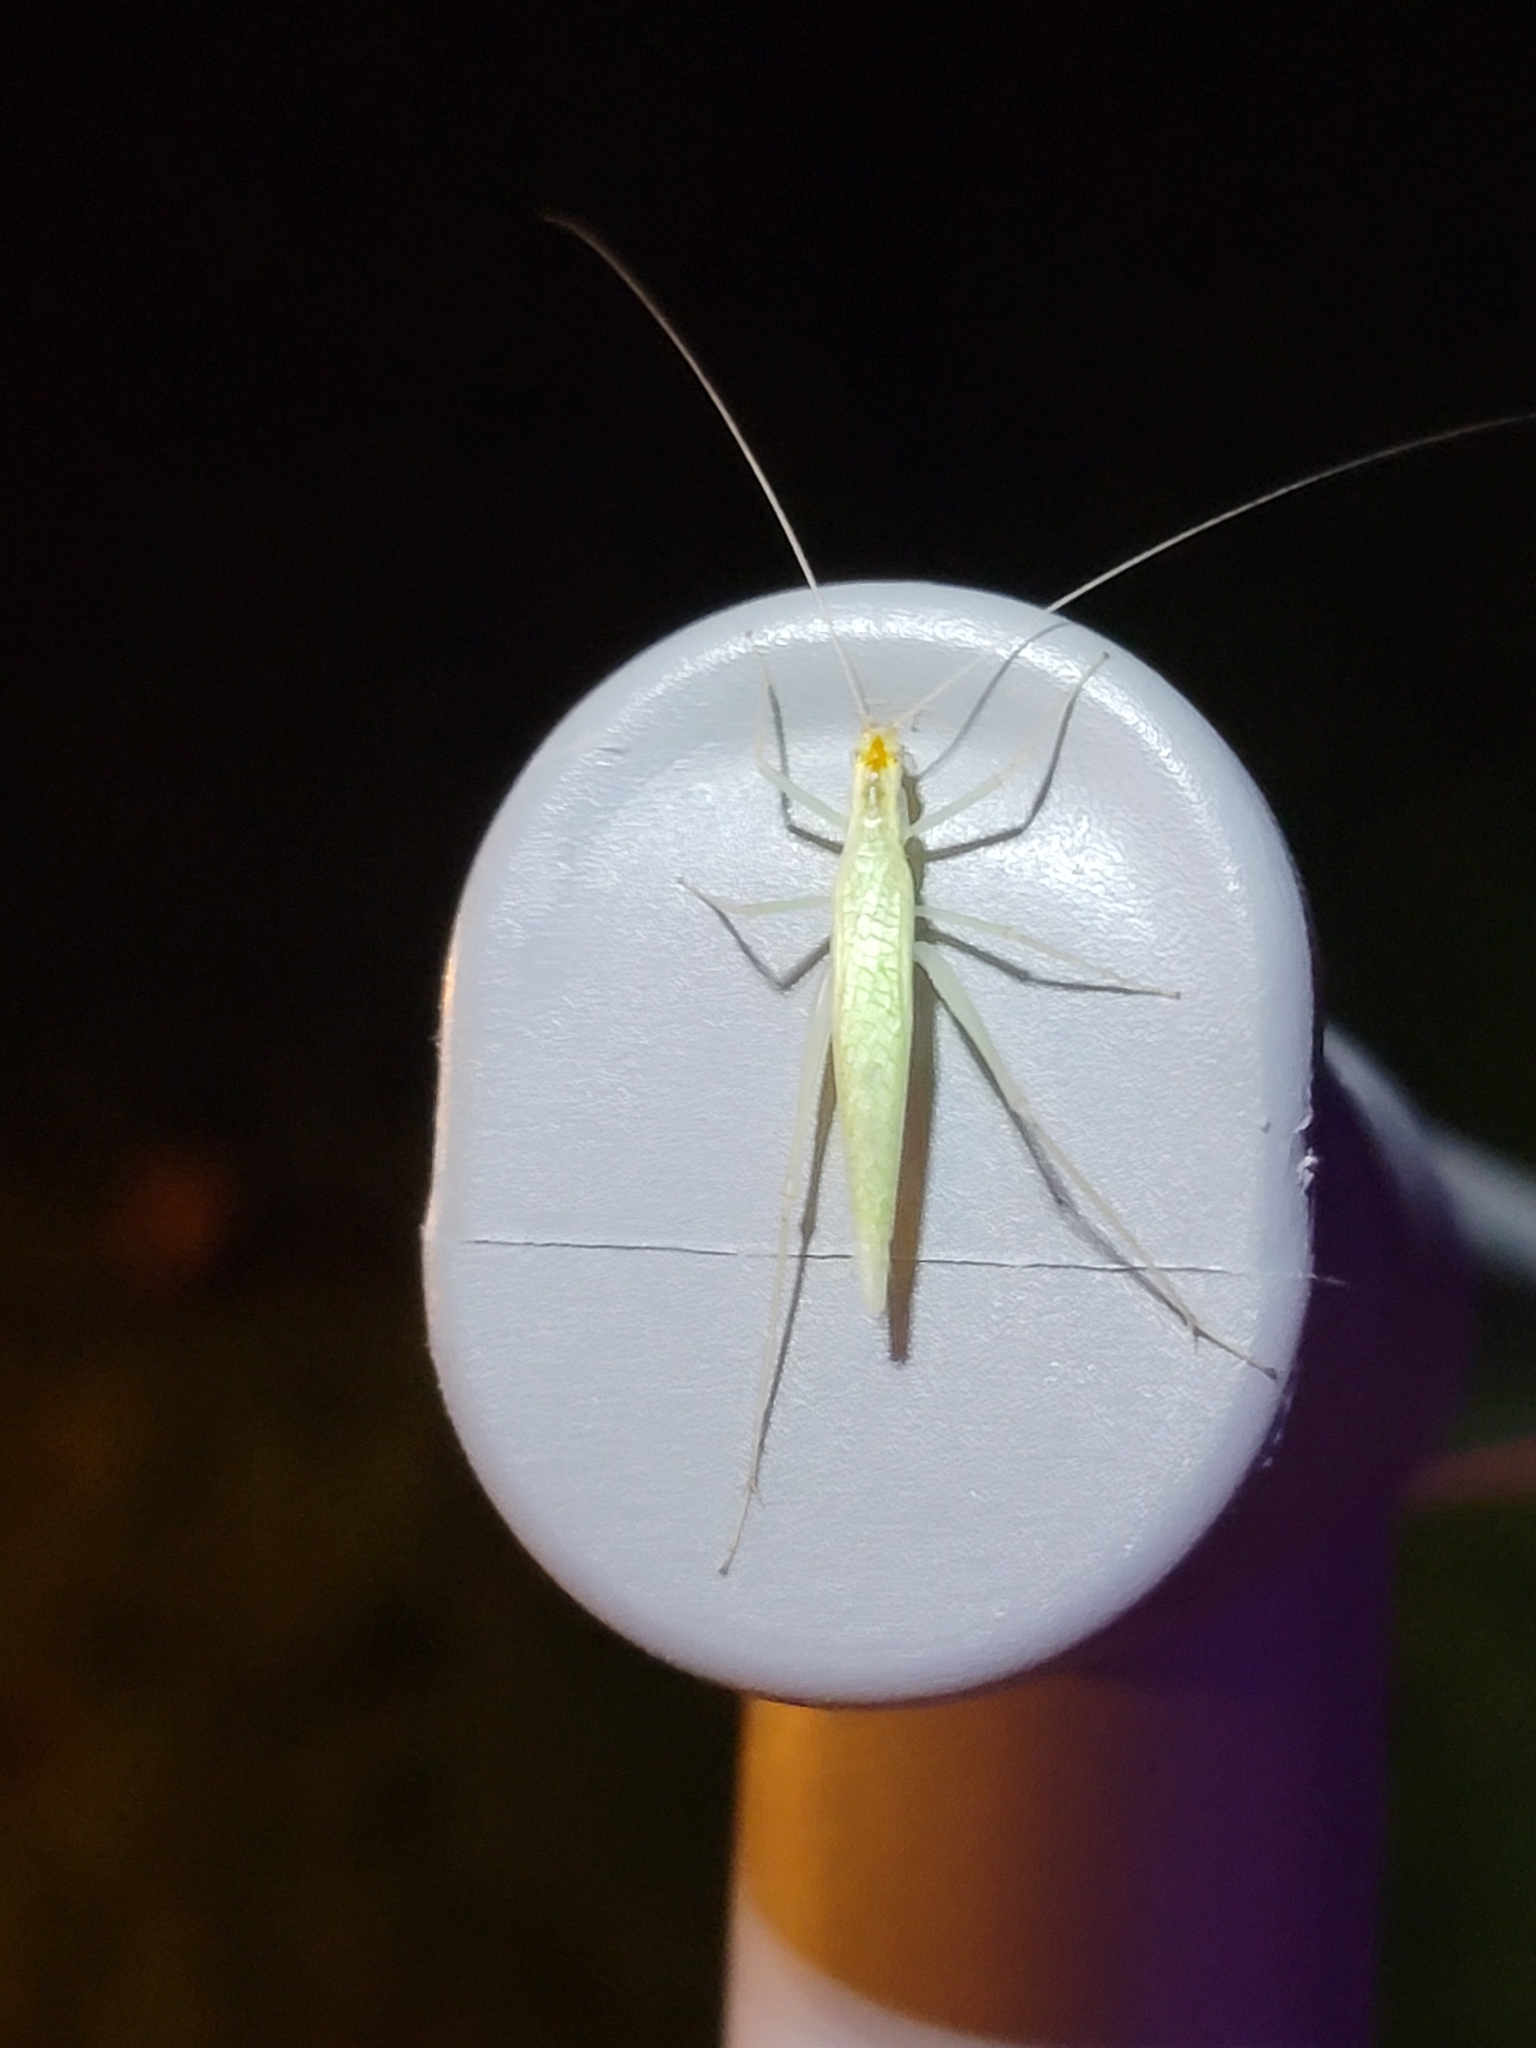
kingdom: Animalia
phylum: Arthropoda
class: Insecta
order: Orthoptera
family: Gryllidae
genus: Oecanthus
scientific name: Oecanthus niveus
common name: Narrow-winged tree cricket
